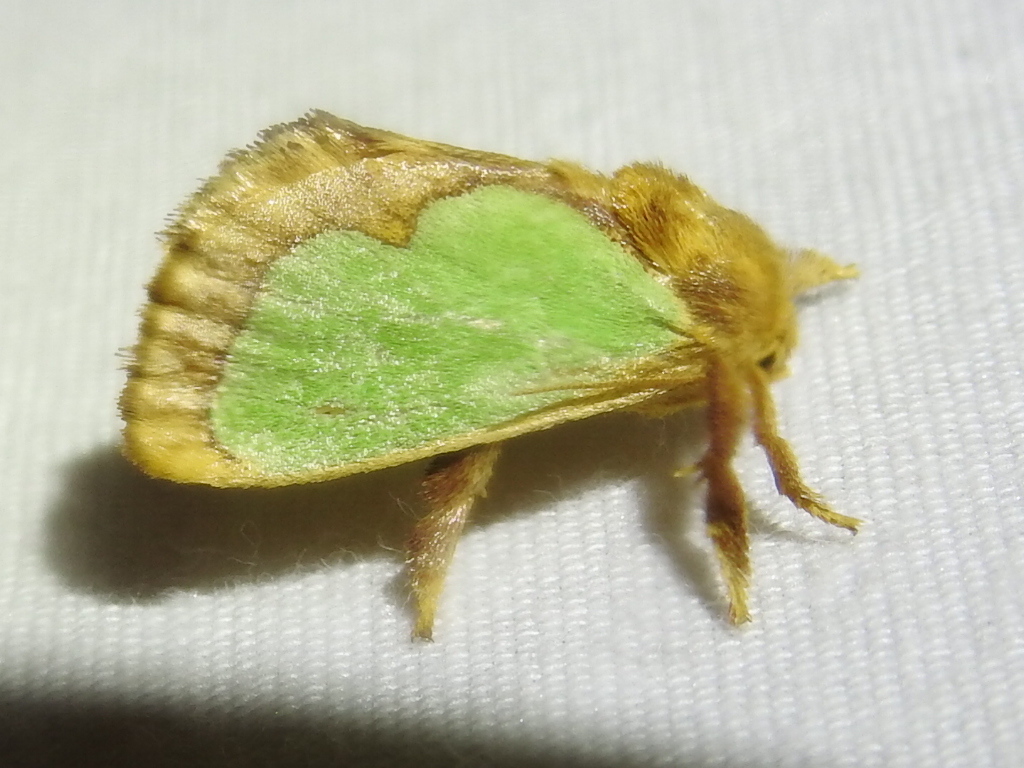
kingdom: Animalia
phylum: Arthropoda
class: Insecta
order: Lepidoptera
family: Limacodidae
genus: Euclea
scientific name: Euclea incisa
